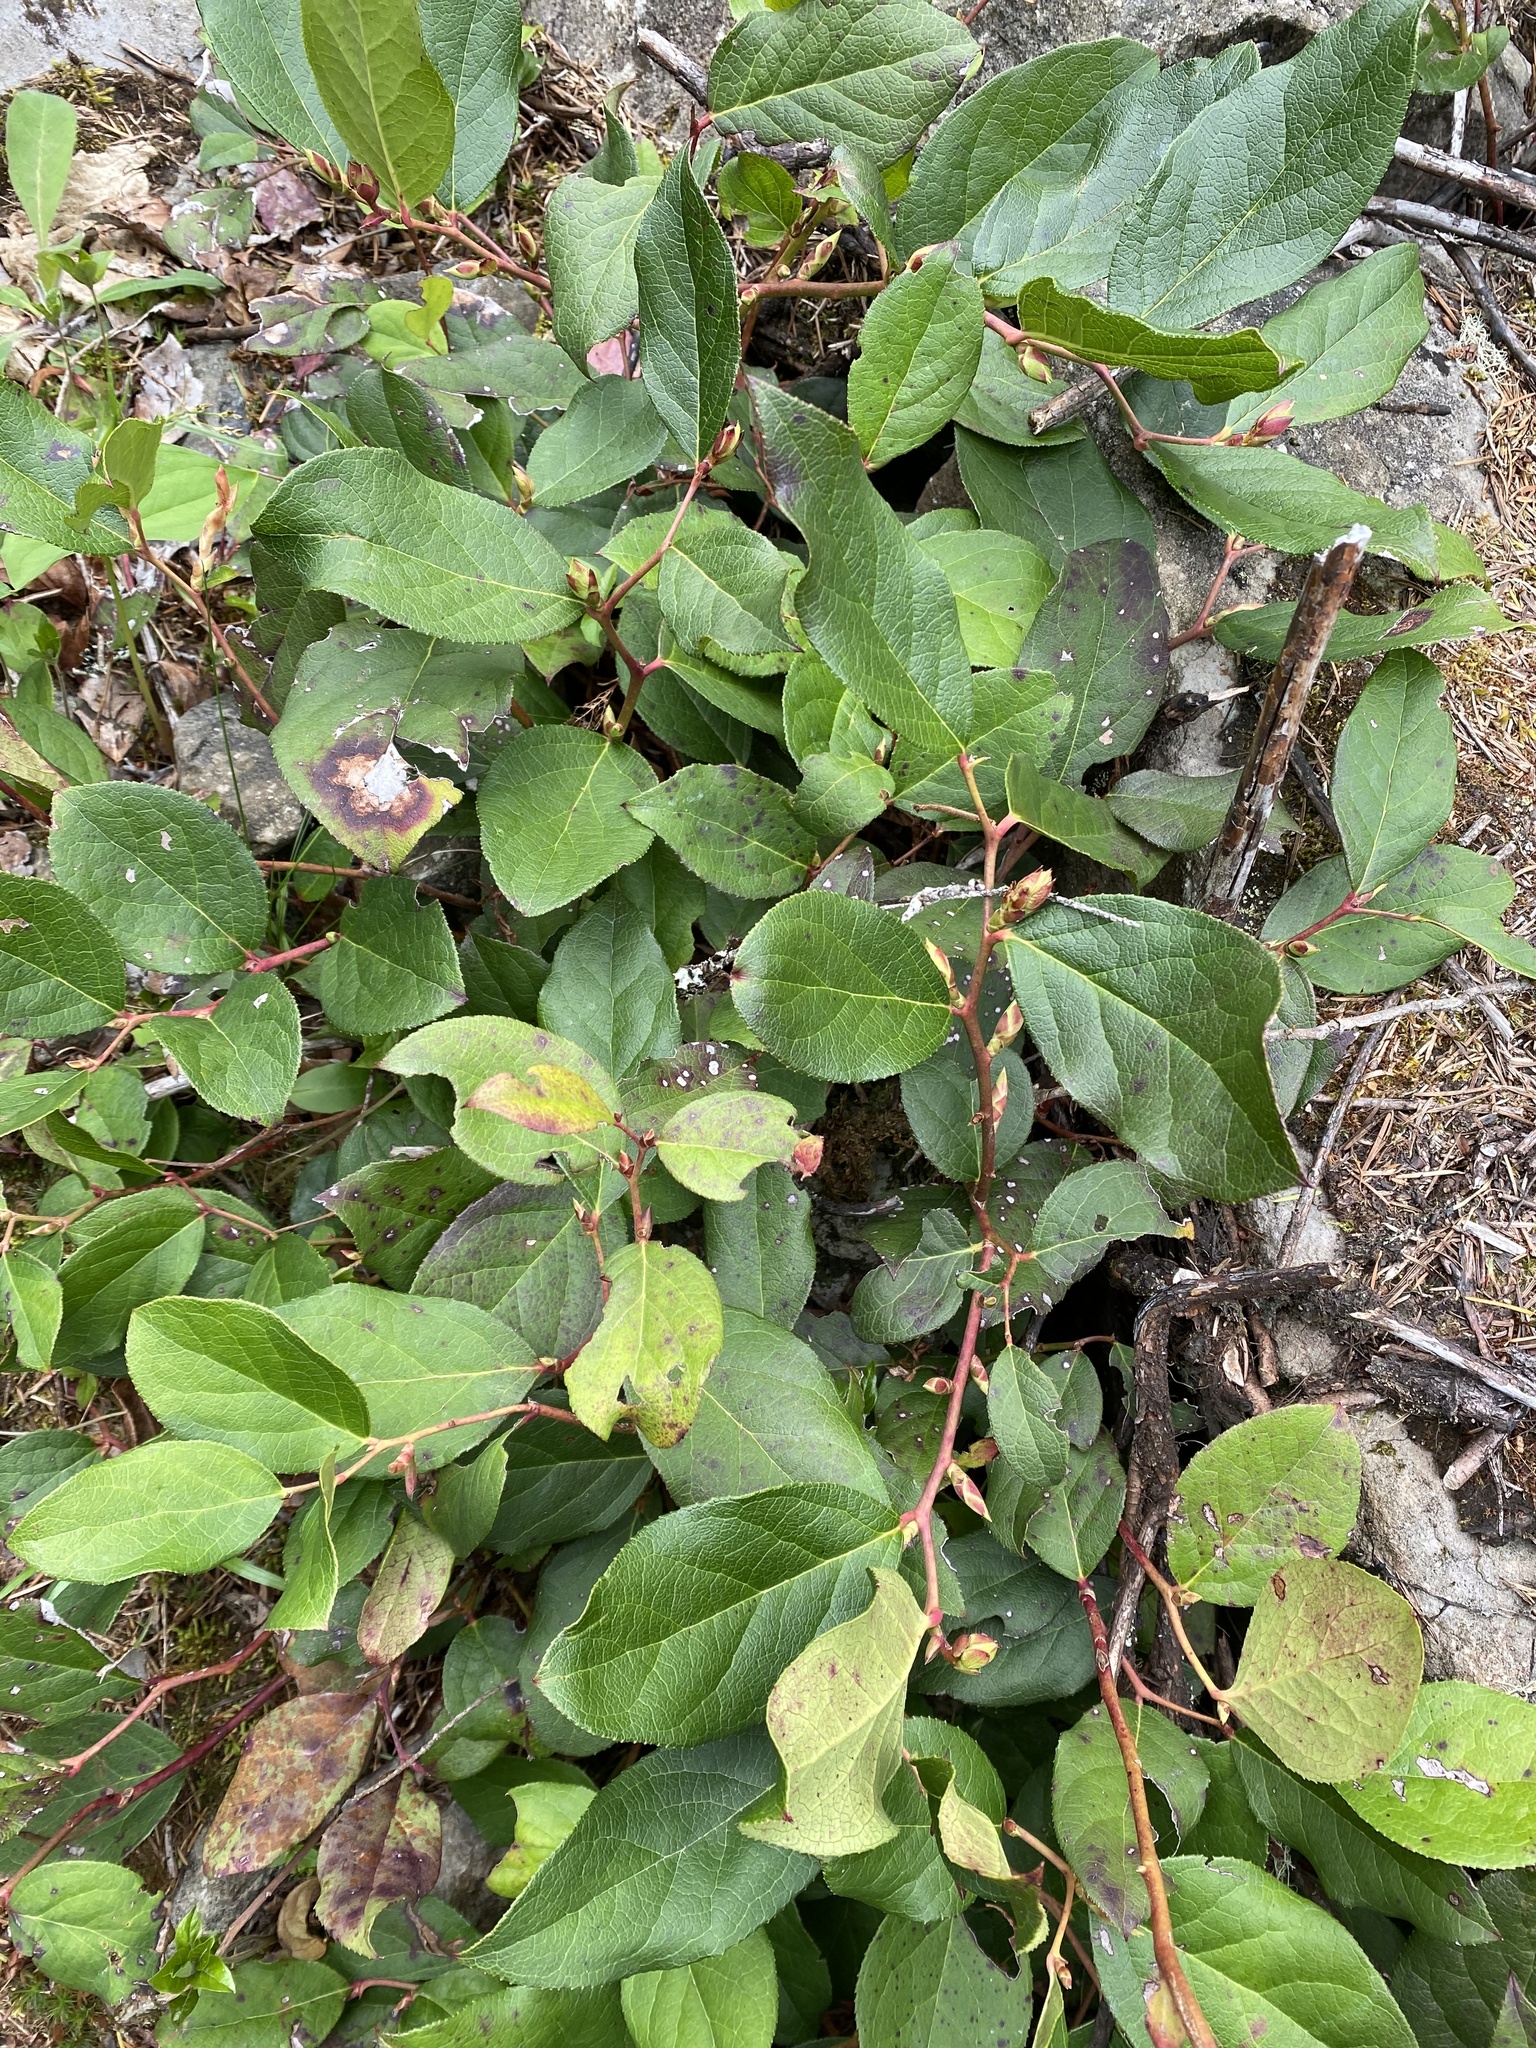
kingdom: Plantae
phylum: Tracheophyta
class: Magnoliopsida
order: Ericales
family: Ericaceae
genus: Gaultheria
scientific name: Gaultheria shallon
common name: Shallon
